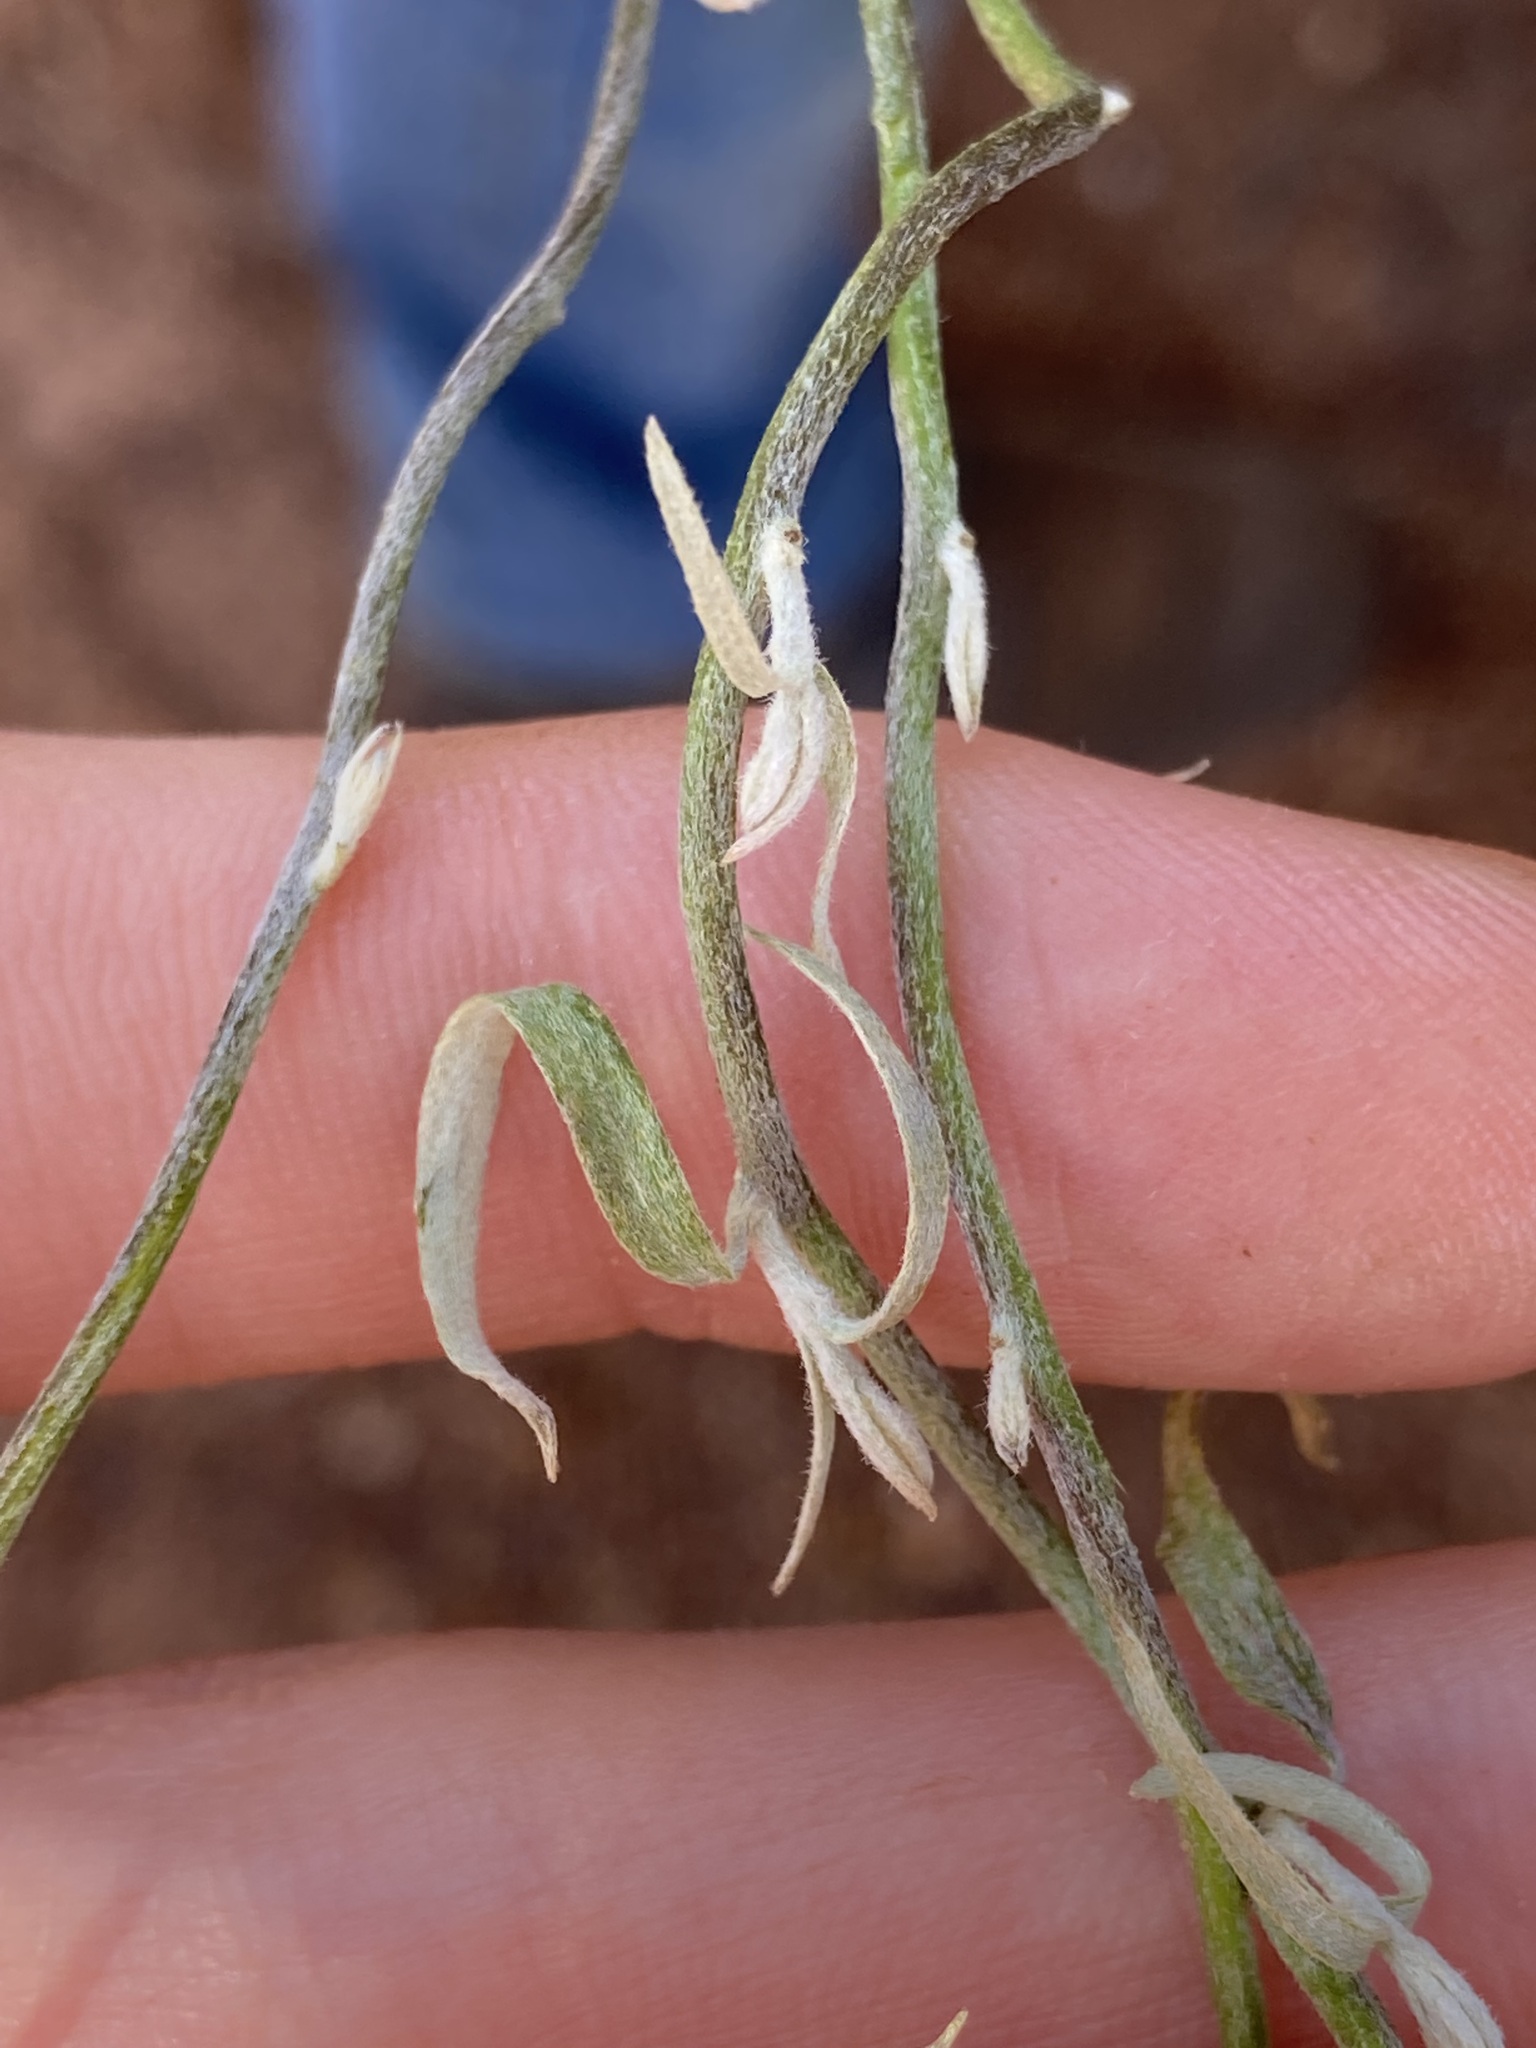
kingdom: Plantae
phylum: Tracheophyta
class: Magnoliopsida
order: Solanales
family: Convolvulaceae
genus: Duperreya
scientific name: Duperreya commixta
